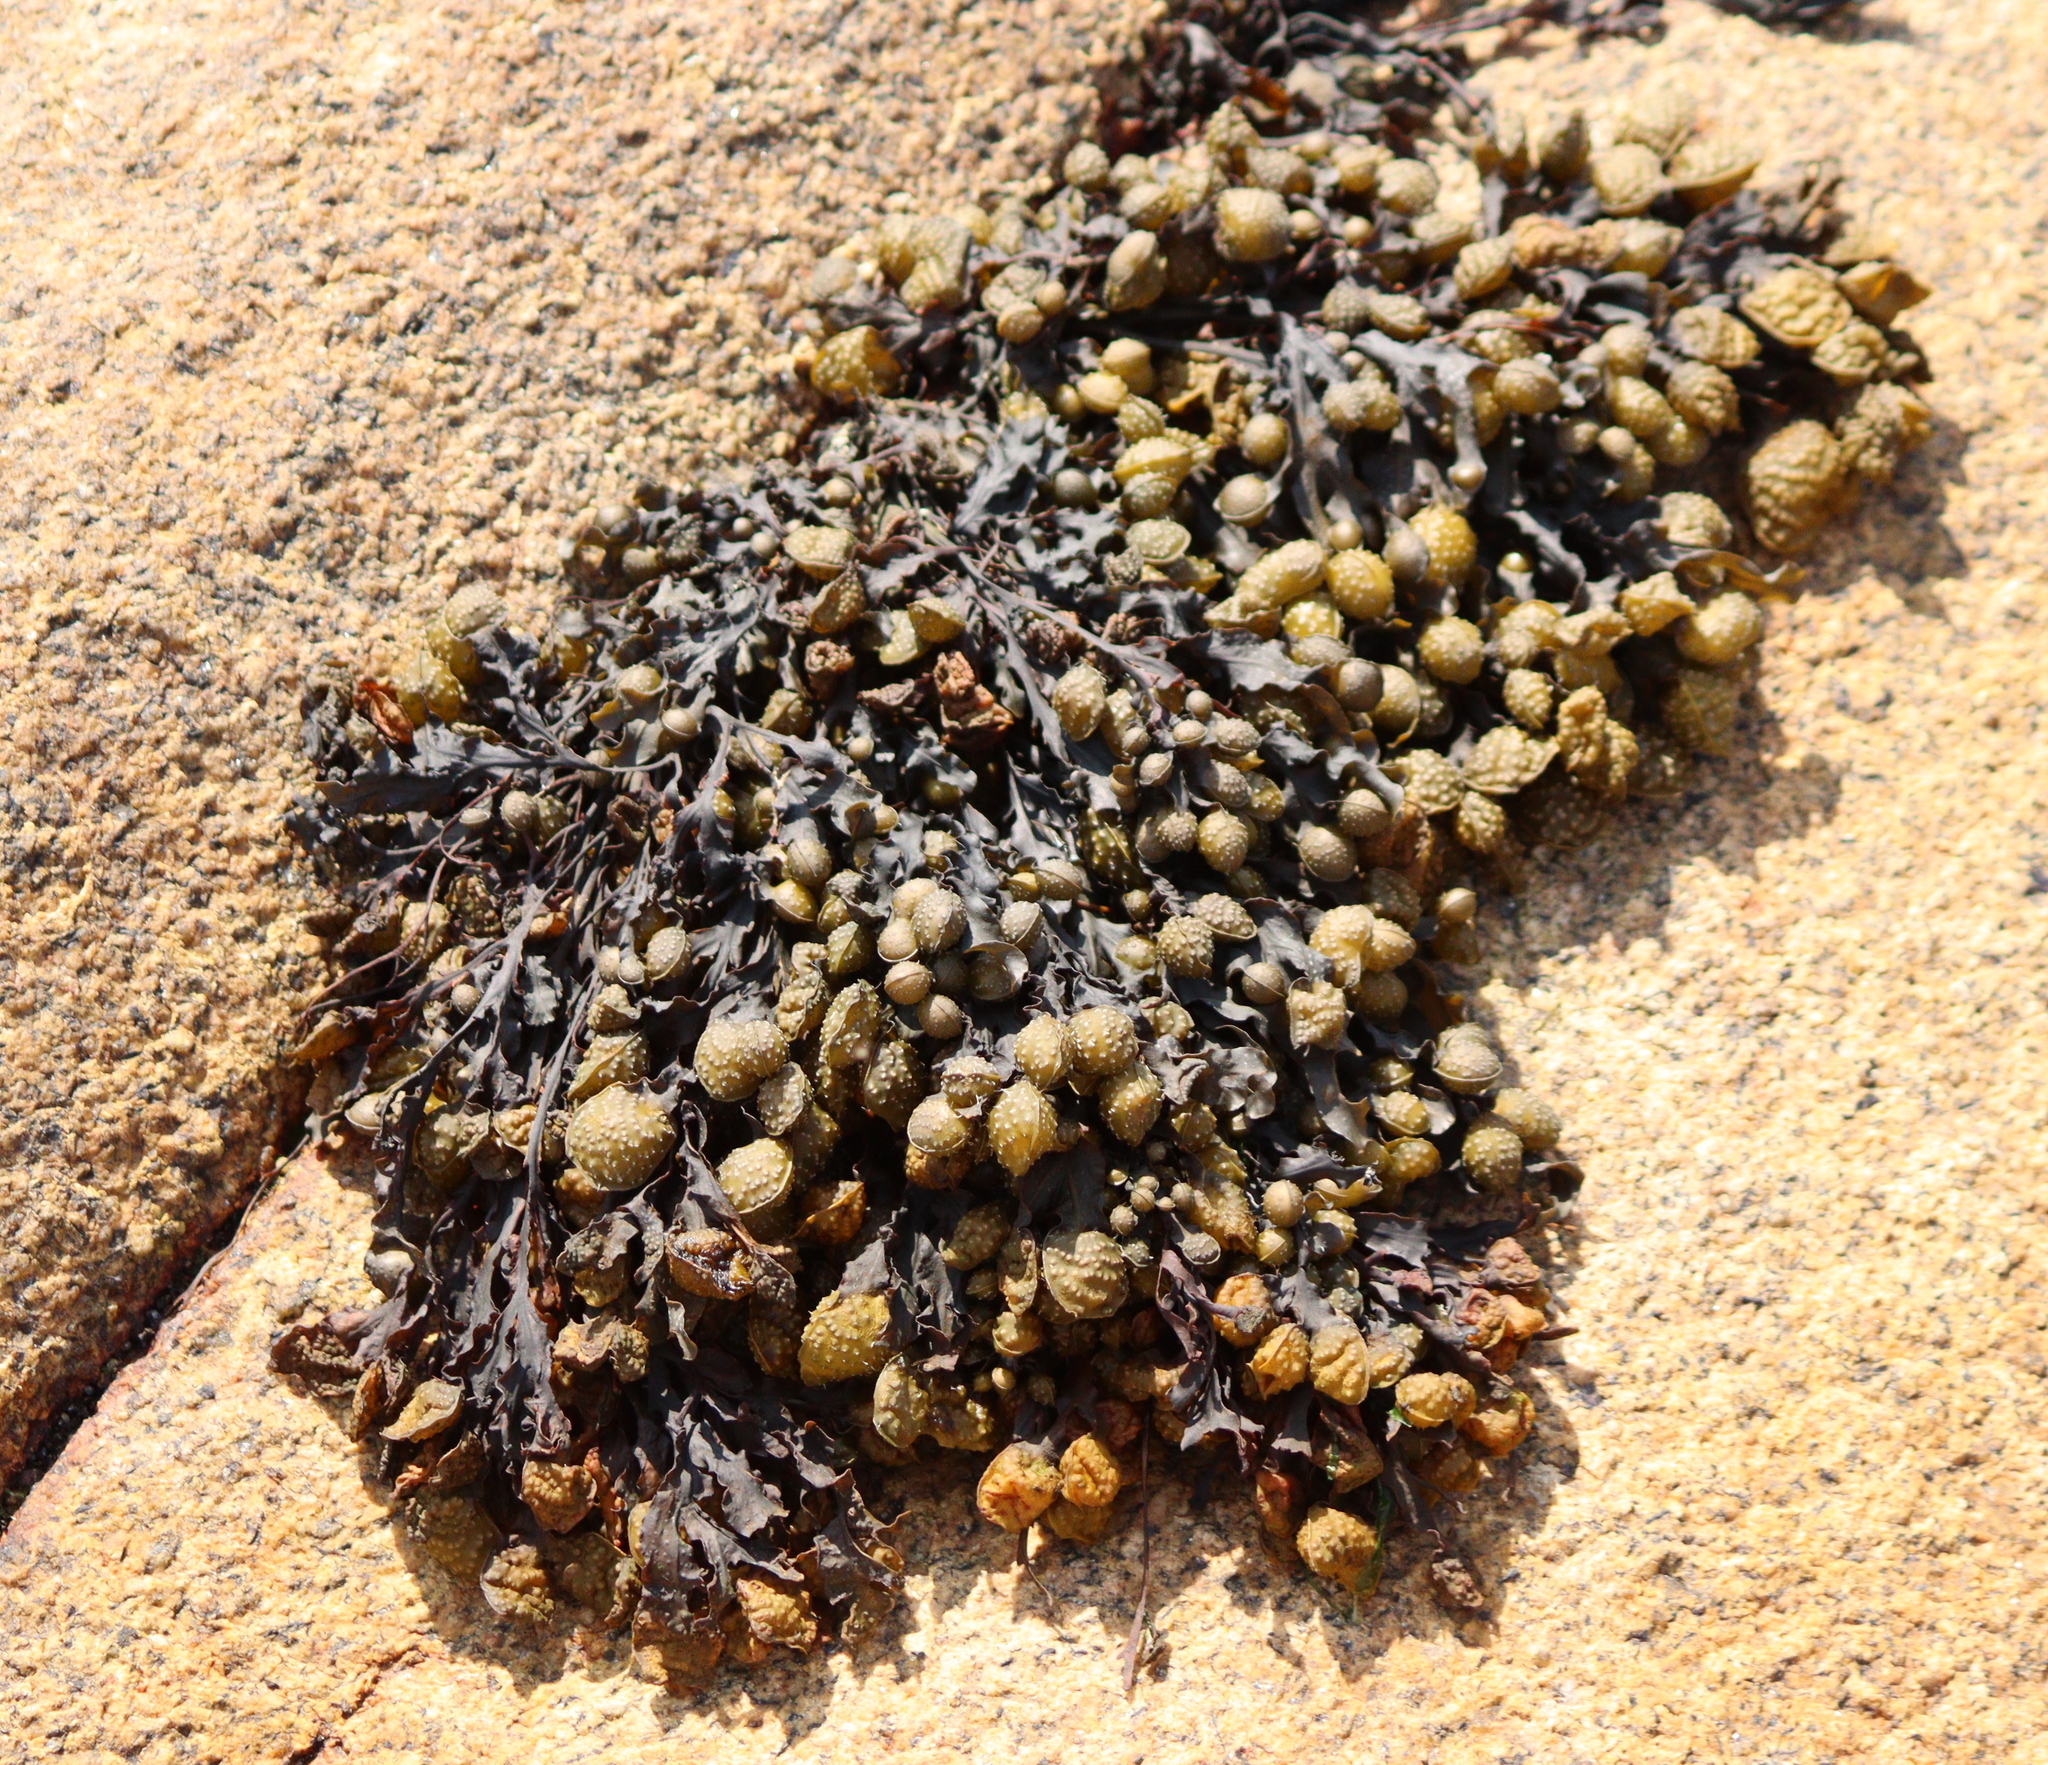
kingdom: Chromista
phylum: Ochrophyta
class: Phaeophyceae
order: Fucales
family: Fucaceae
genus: Fucus
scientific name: Fucus spiralis
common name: Spiral wrack
